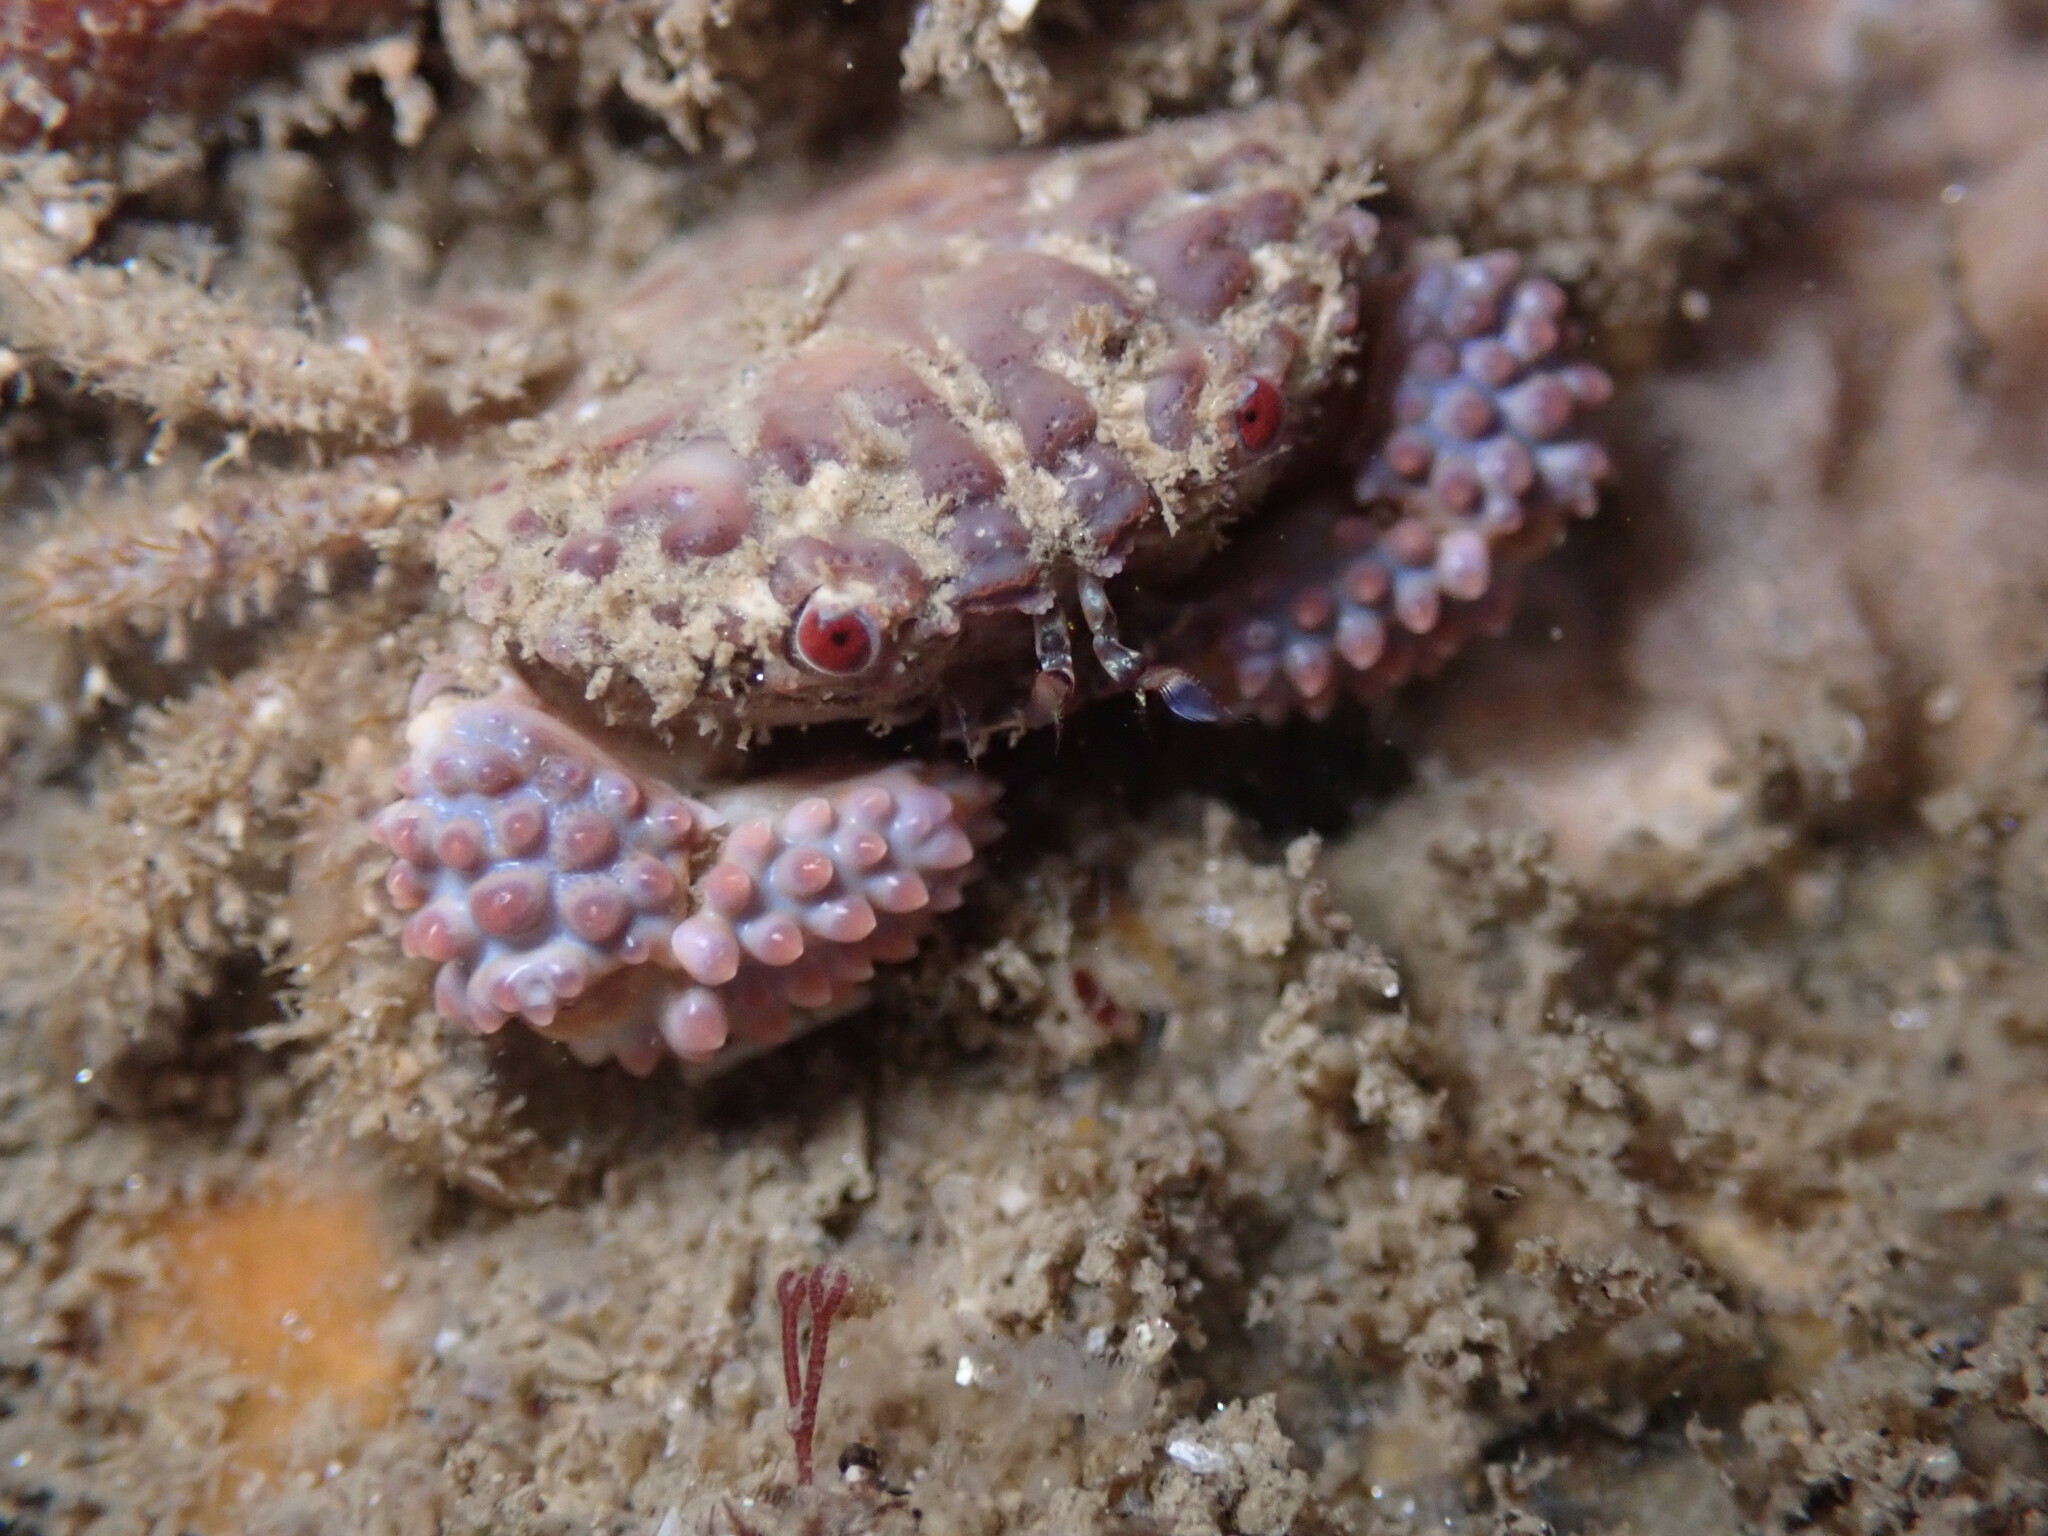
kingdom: Animalia
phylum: Arthropoda
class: Malacostraca
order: Decapoda
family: Xanthidae
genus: Paraxanthias
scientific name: Paraxanthias taylori
